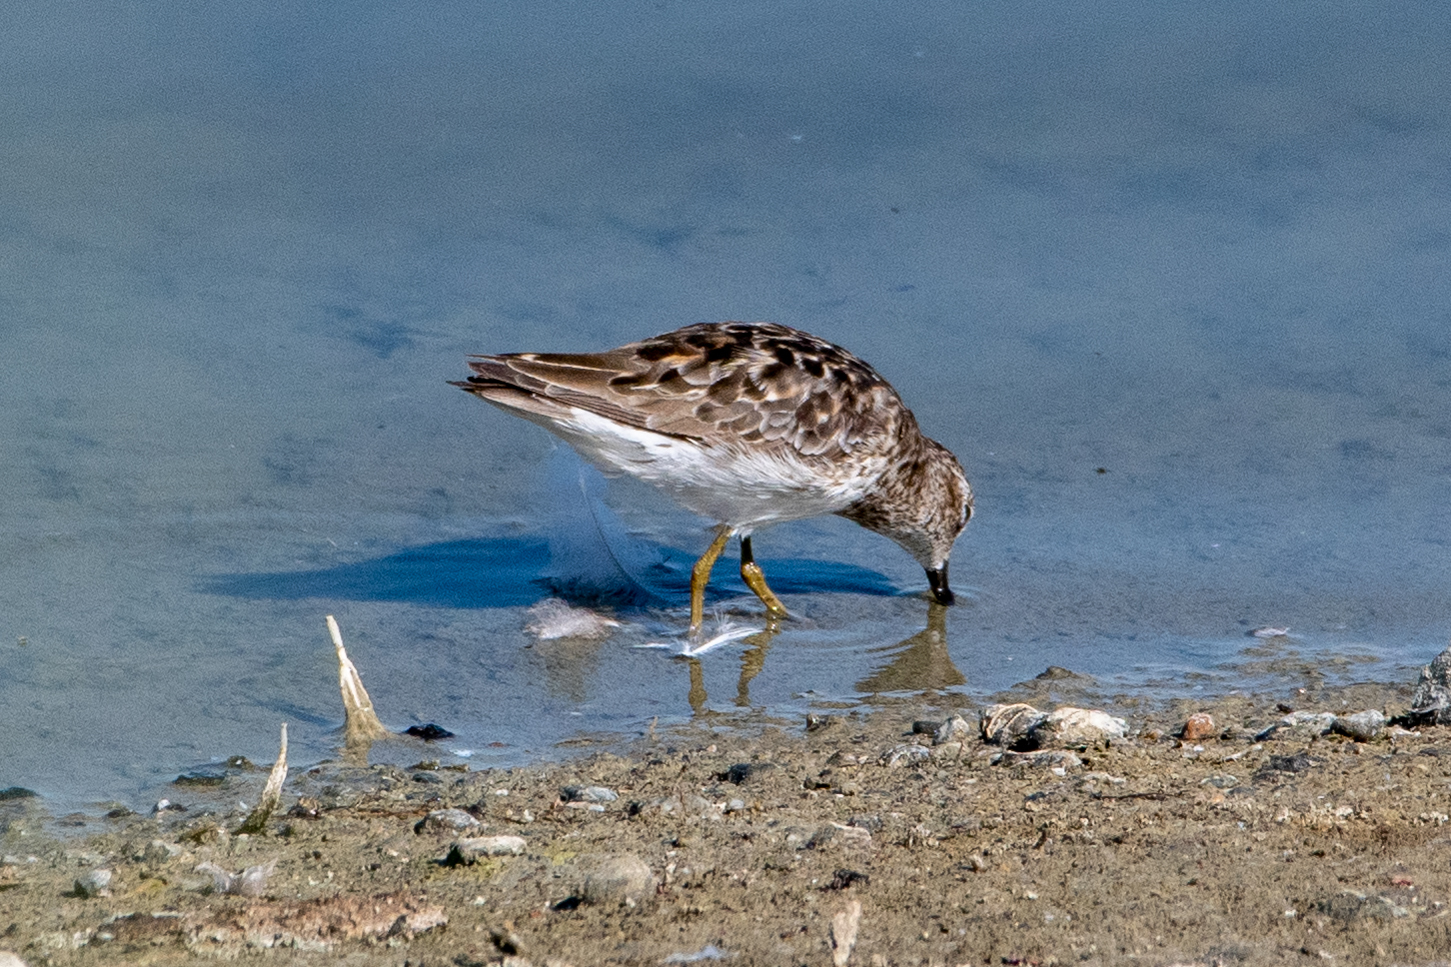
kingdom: Animalia
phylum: Chordata
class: Aves
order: Charadriiformes
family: Scolopacidae
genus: Calidris
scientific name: Calidris minutilla
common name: Least sandpiper
